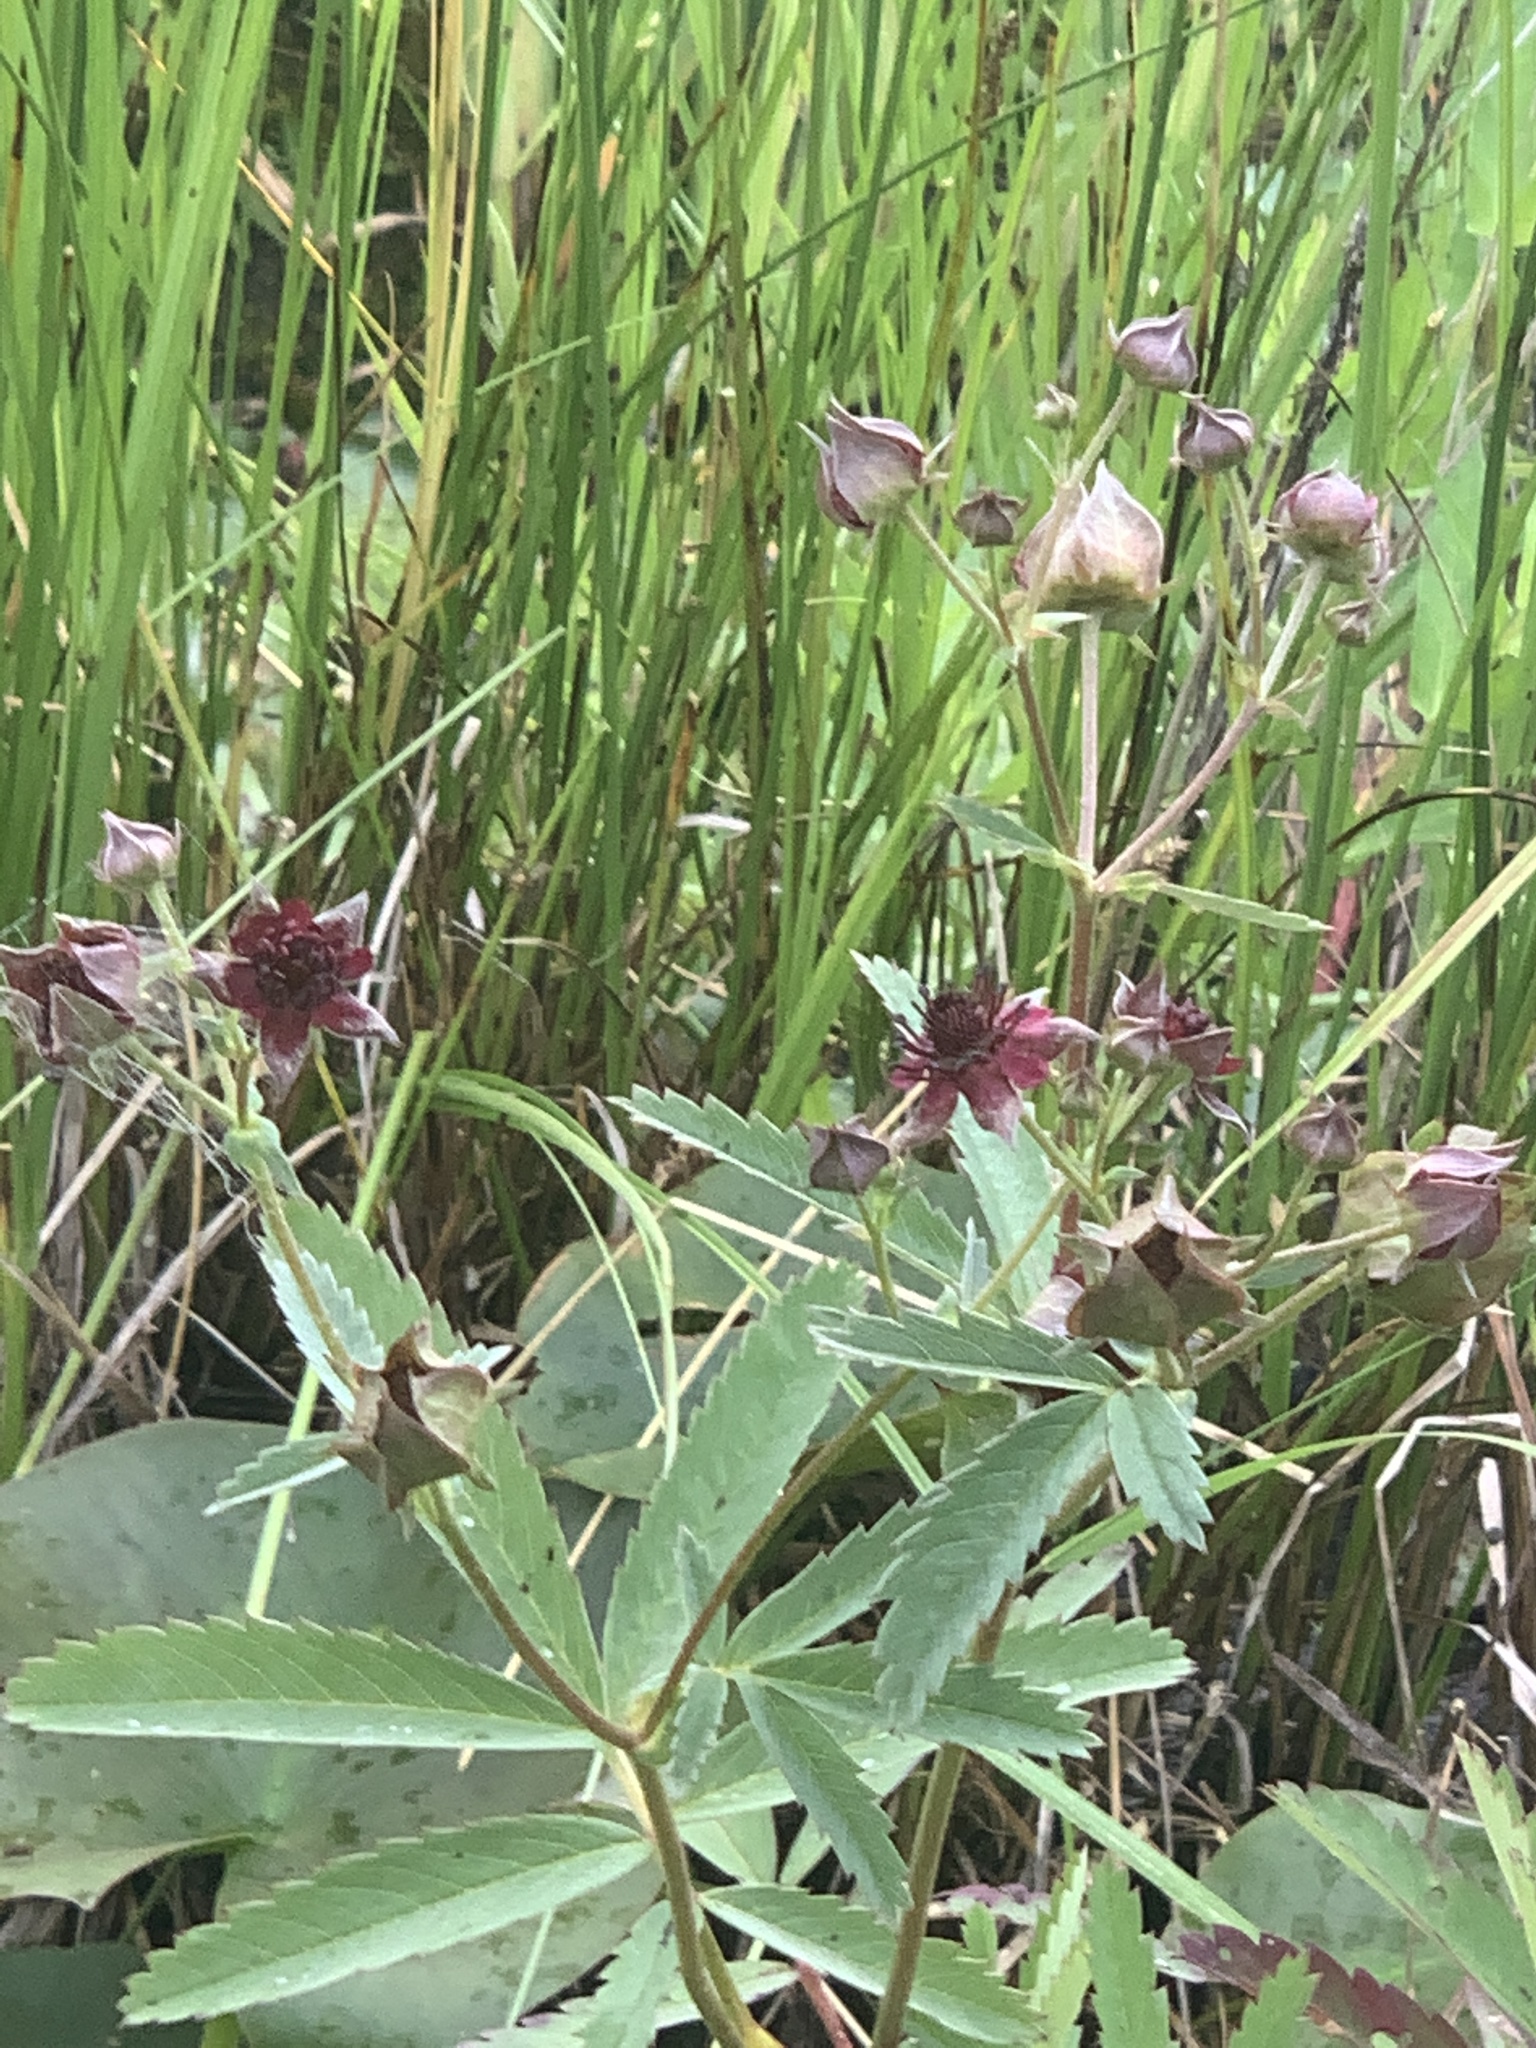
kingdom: Plantae
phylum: Tracheophyta
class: Magnoliopsida
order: Rosales
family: Rosaceae
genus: Comarum
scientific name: Comarum palustre
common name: Marsh cinquefoil
